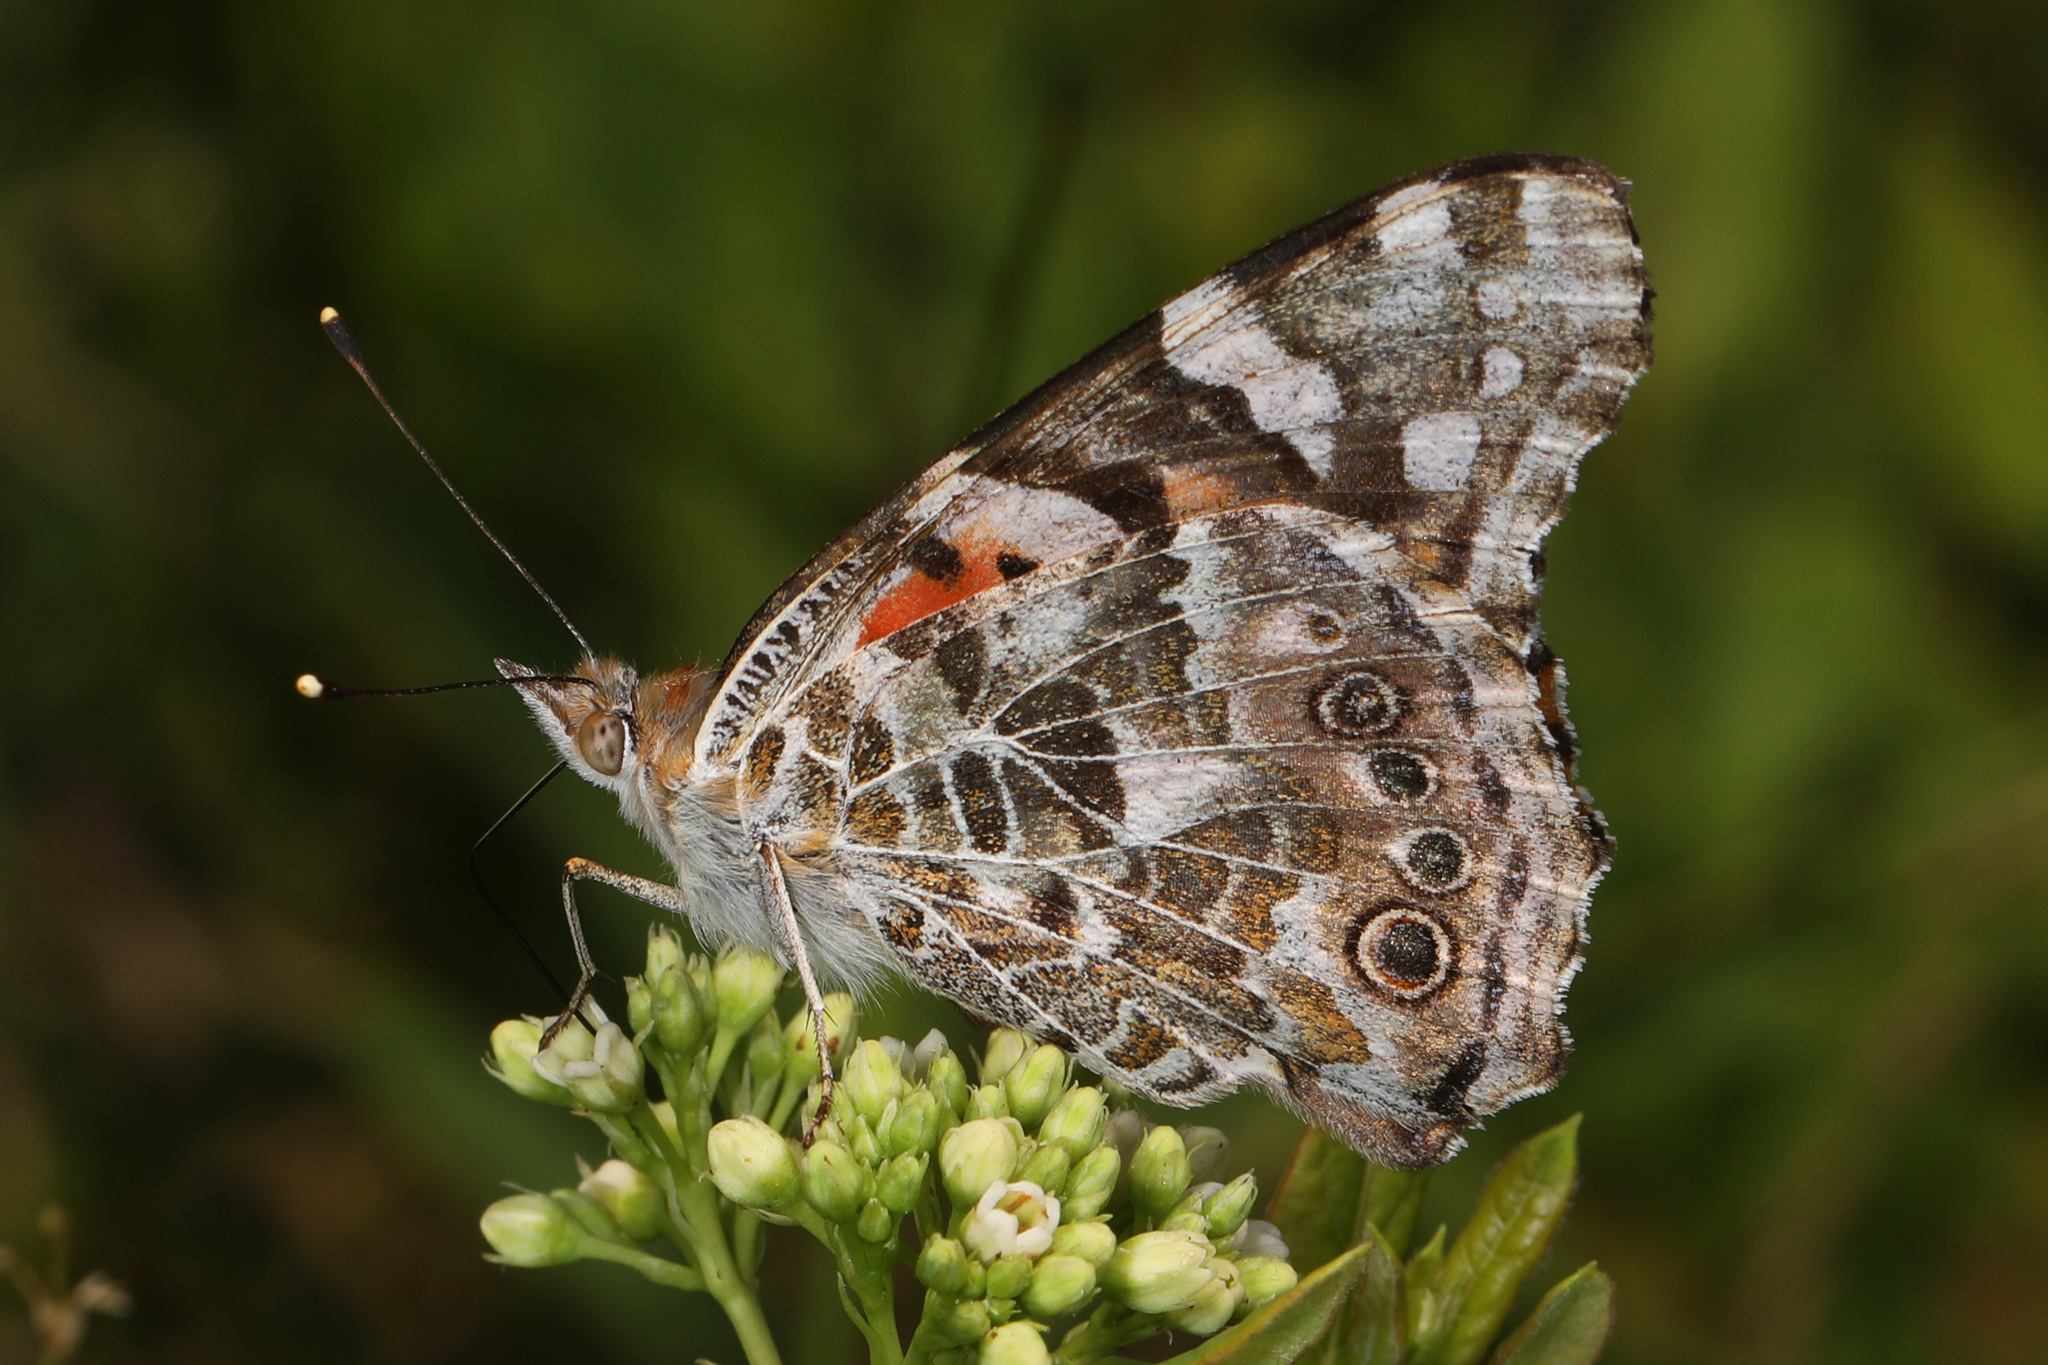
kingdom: Animalia
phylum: Arthropoda
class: Insecta
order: Lepidoptera
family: Nymphalidae
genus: Vanessa
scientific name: Vanessa cardui
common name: Painted lady
